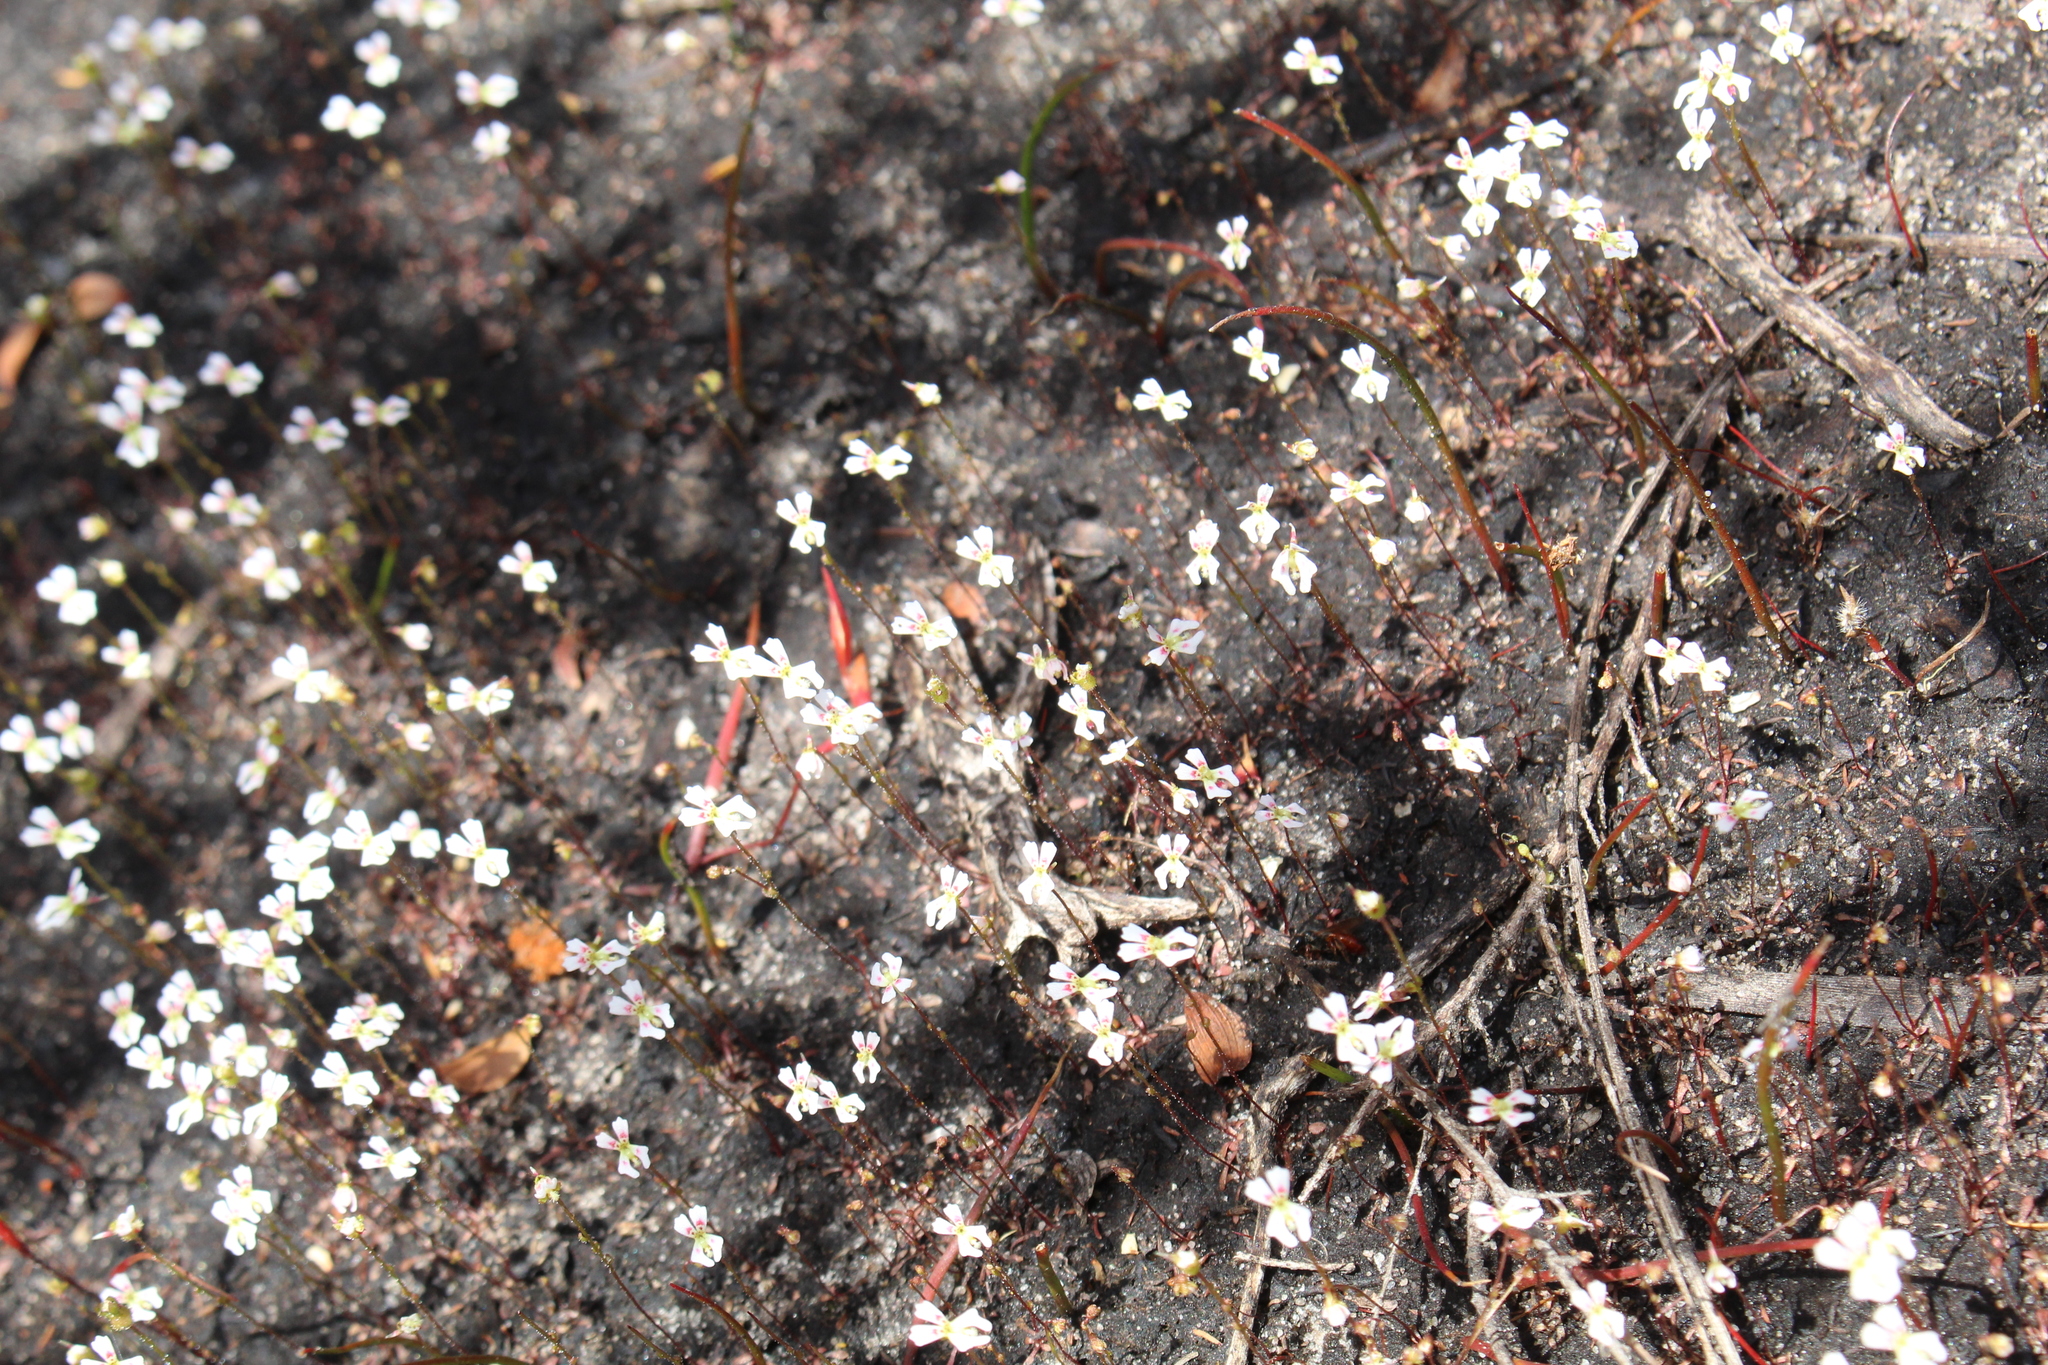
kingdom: Plantae
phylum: Tracheophyta
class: Magnoliopsida
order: Asterales
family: Stylidiaceae
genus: Stylidium
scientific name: Stylidium calcaratum
